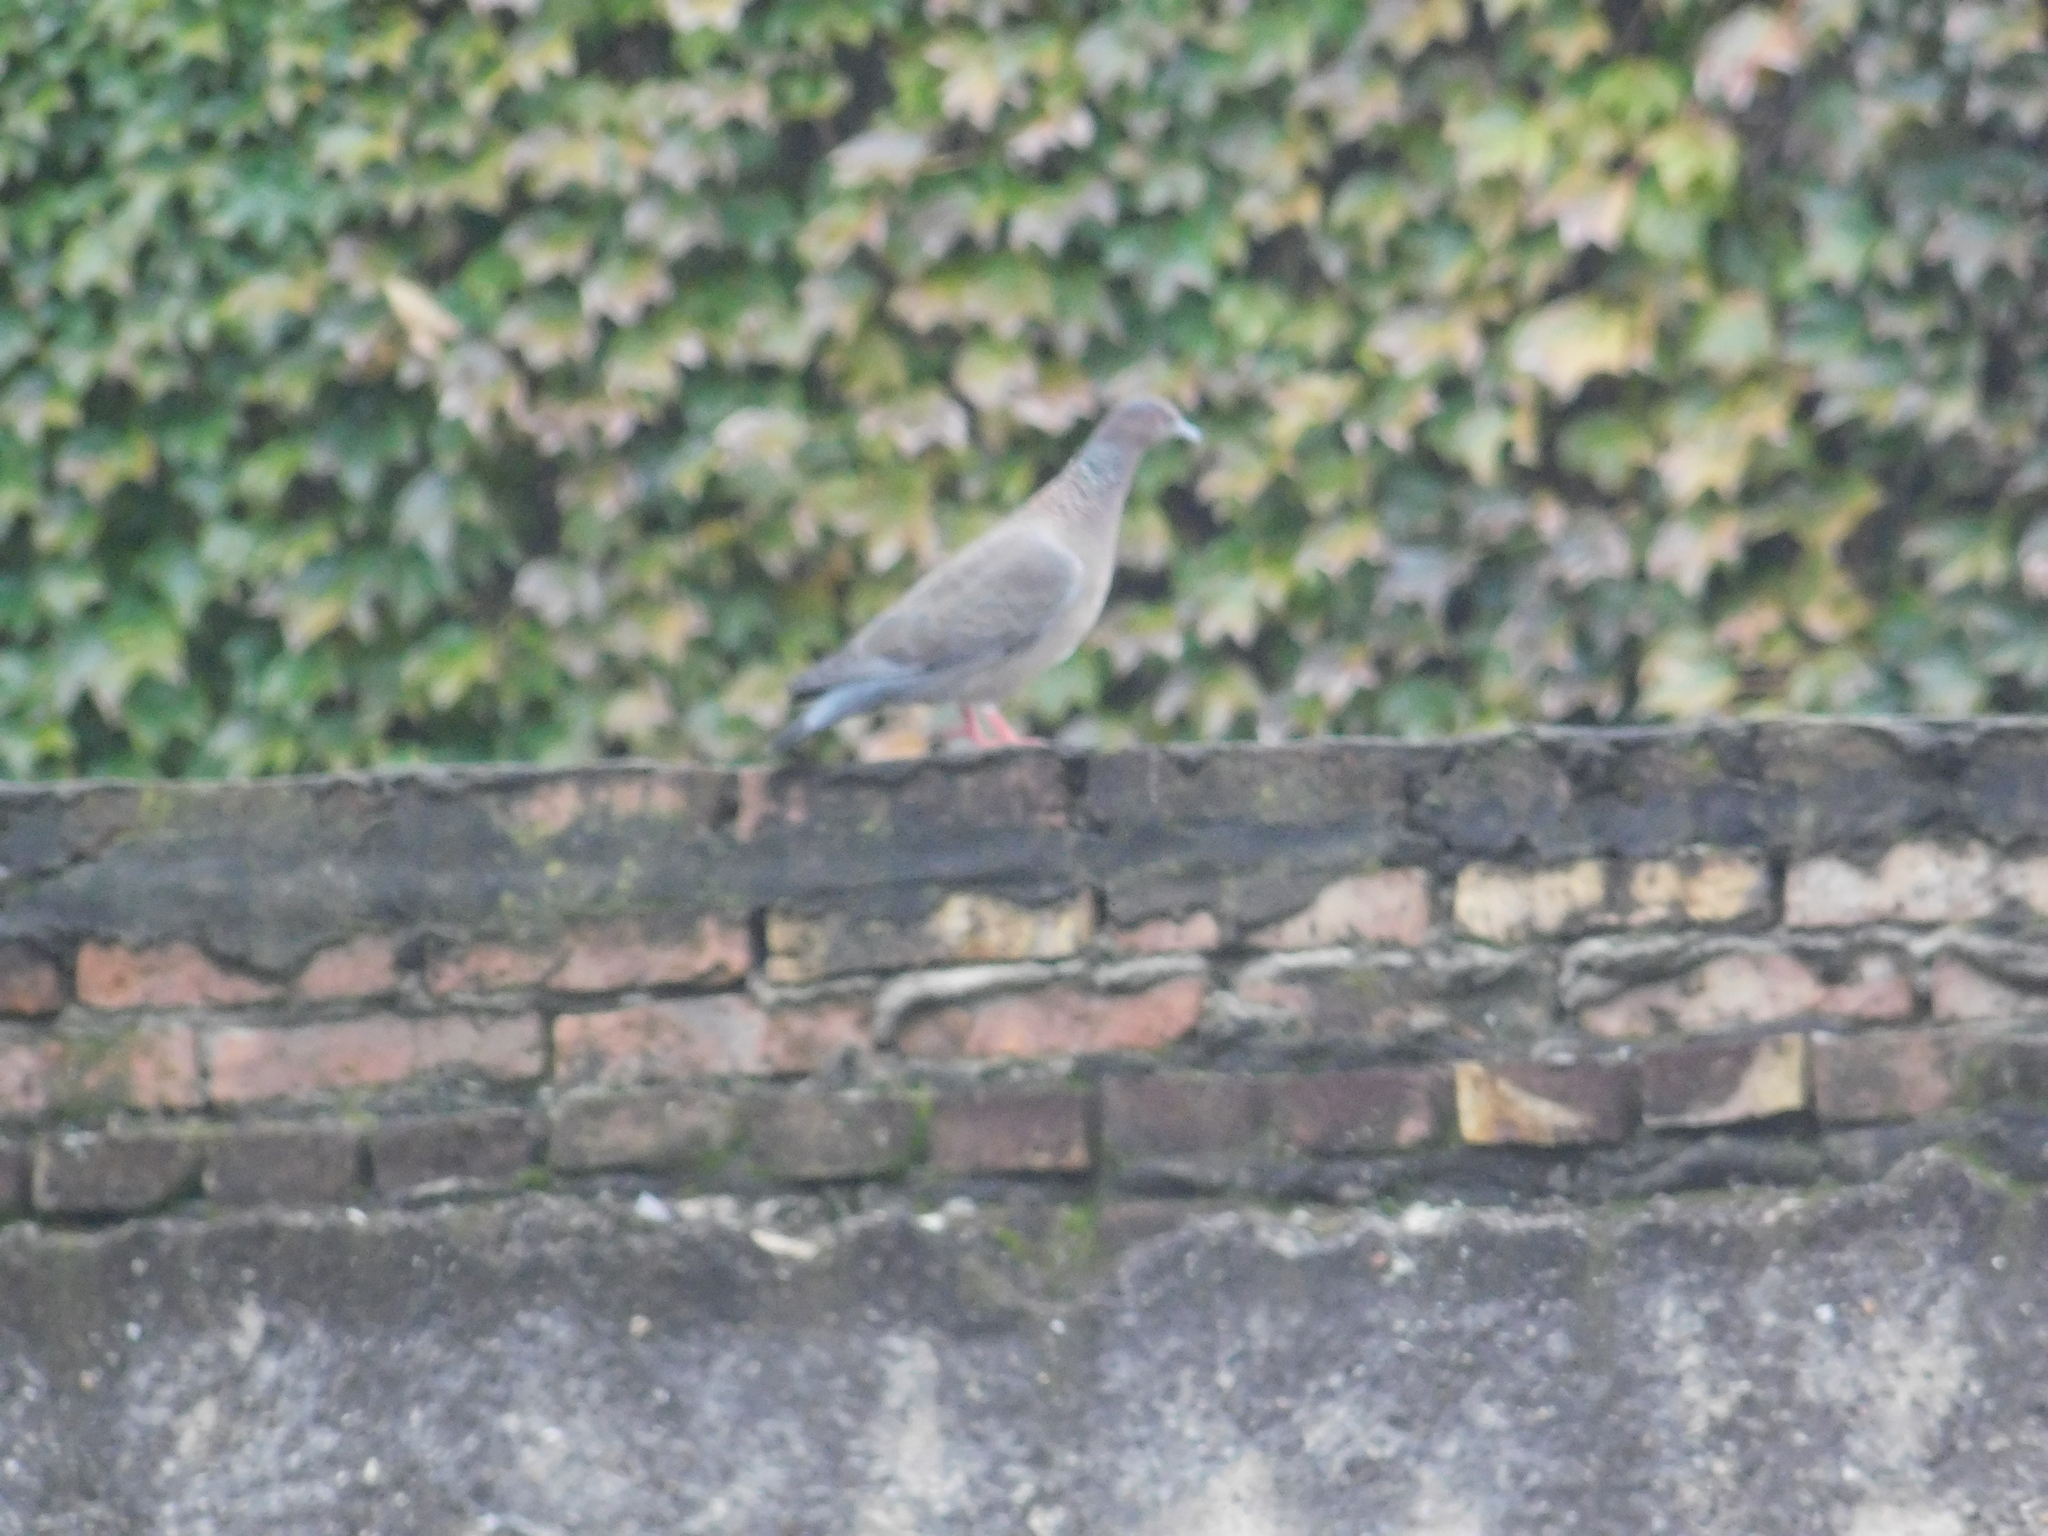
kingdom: Animalia
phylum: Chordata
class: Aves
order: Columbiformes
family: Columbidae
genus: Patagioenas
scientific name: Patagioenas picazuro
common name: Picazuro pigeon
